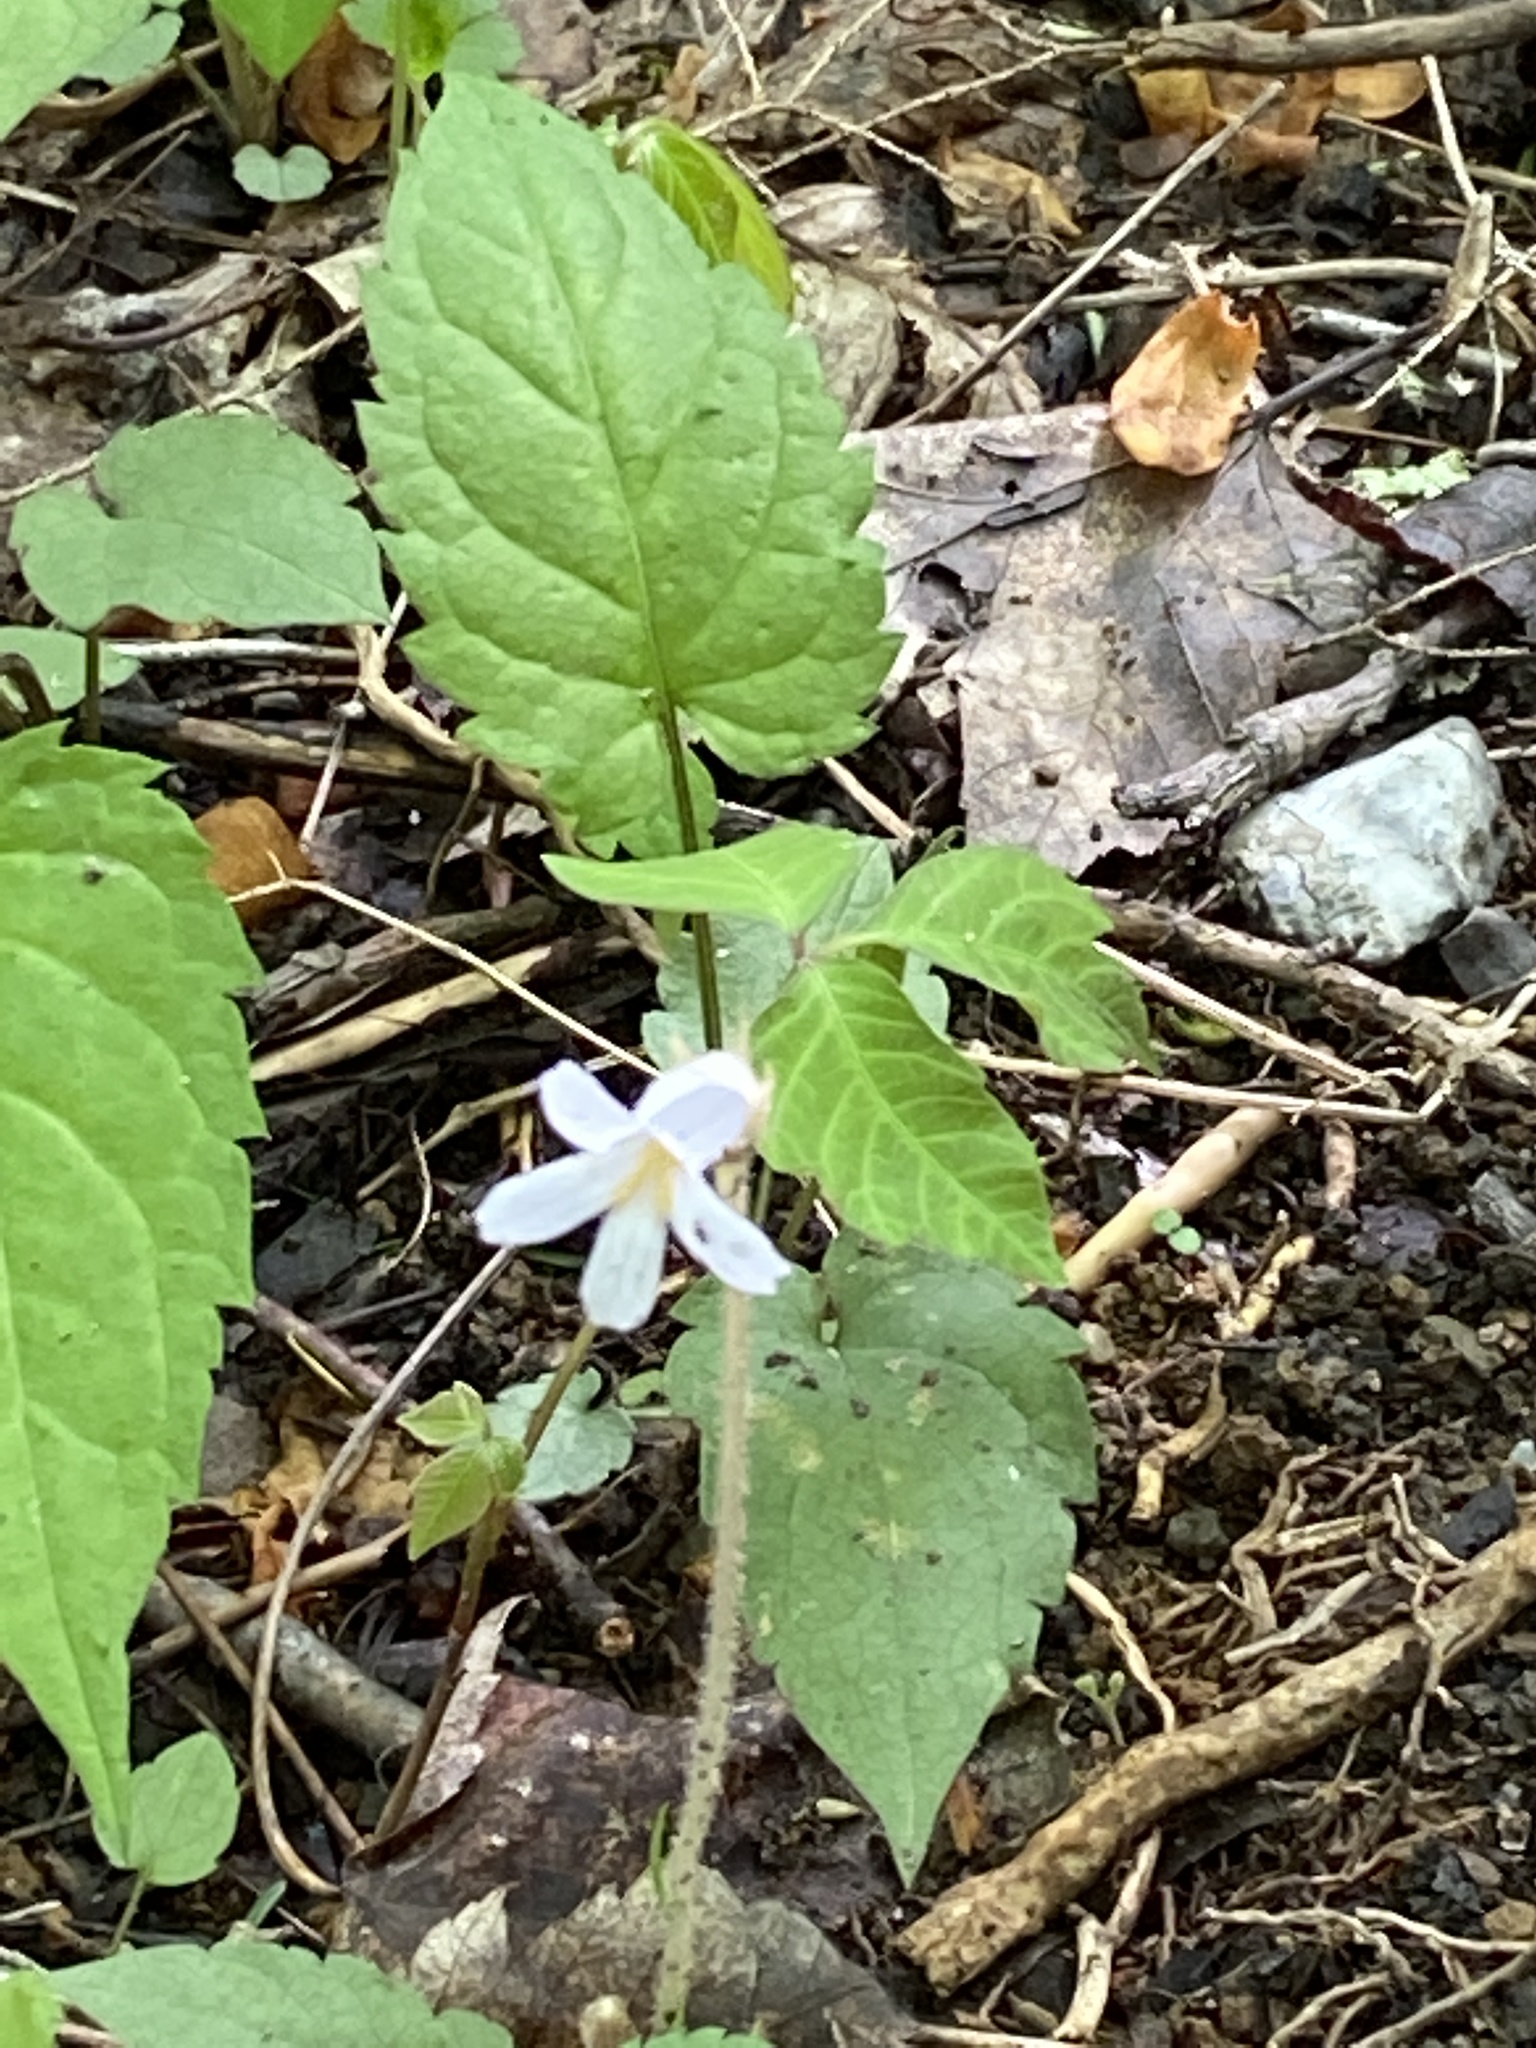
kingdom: Plantae
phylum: Tracheophyta
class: Magnoliopsida
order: Lamiales
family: Orobanchaceae
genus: Aphyllon
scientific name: Aphyllon uniflorum
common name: One-flowered broomrape
